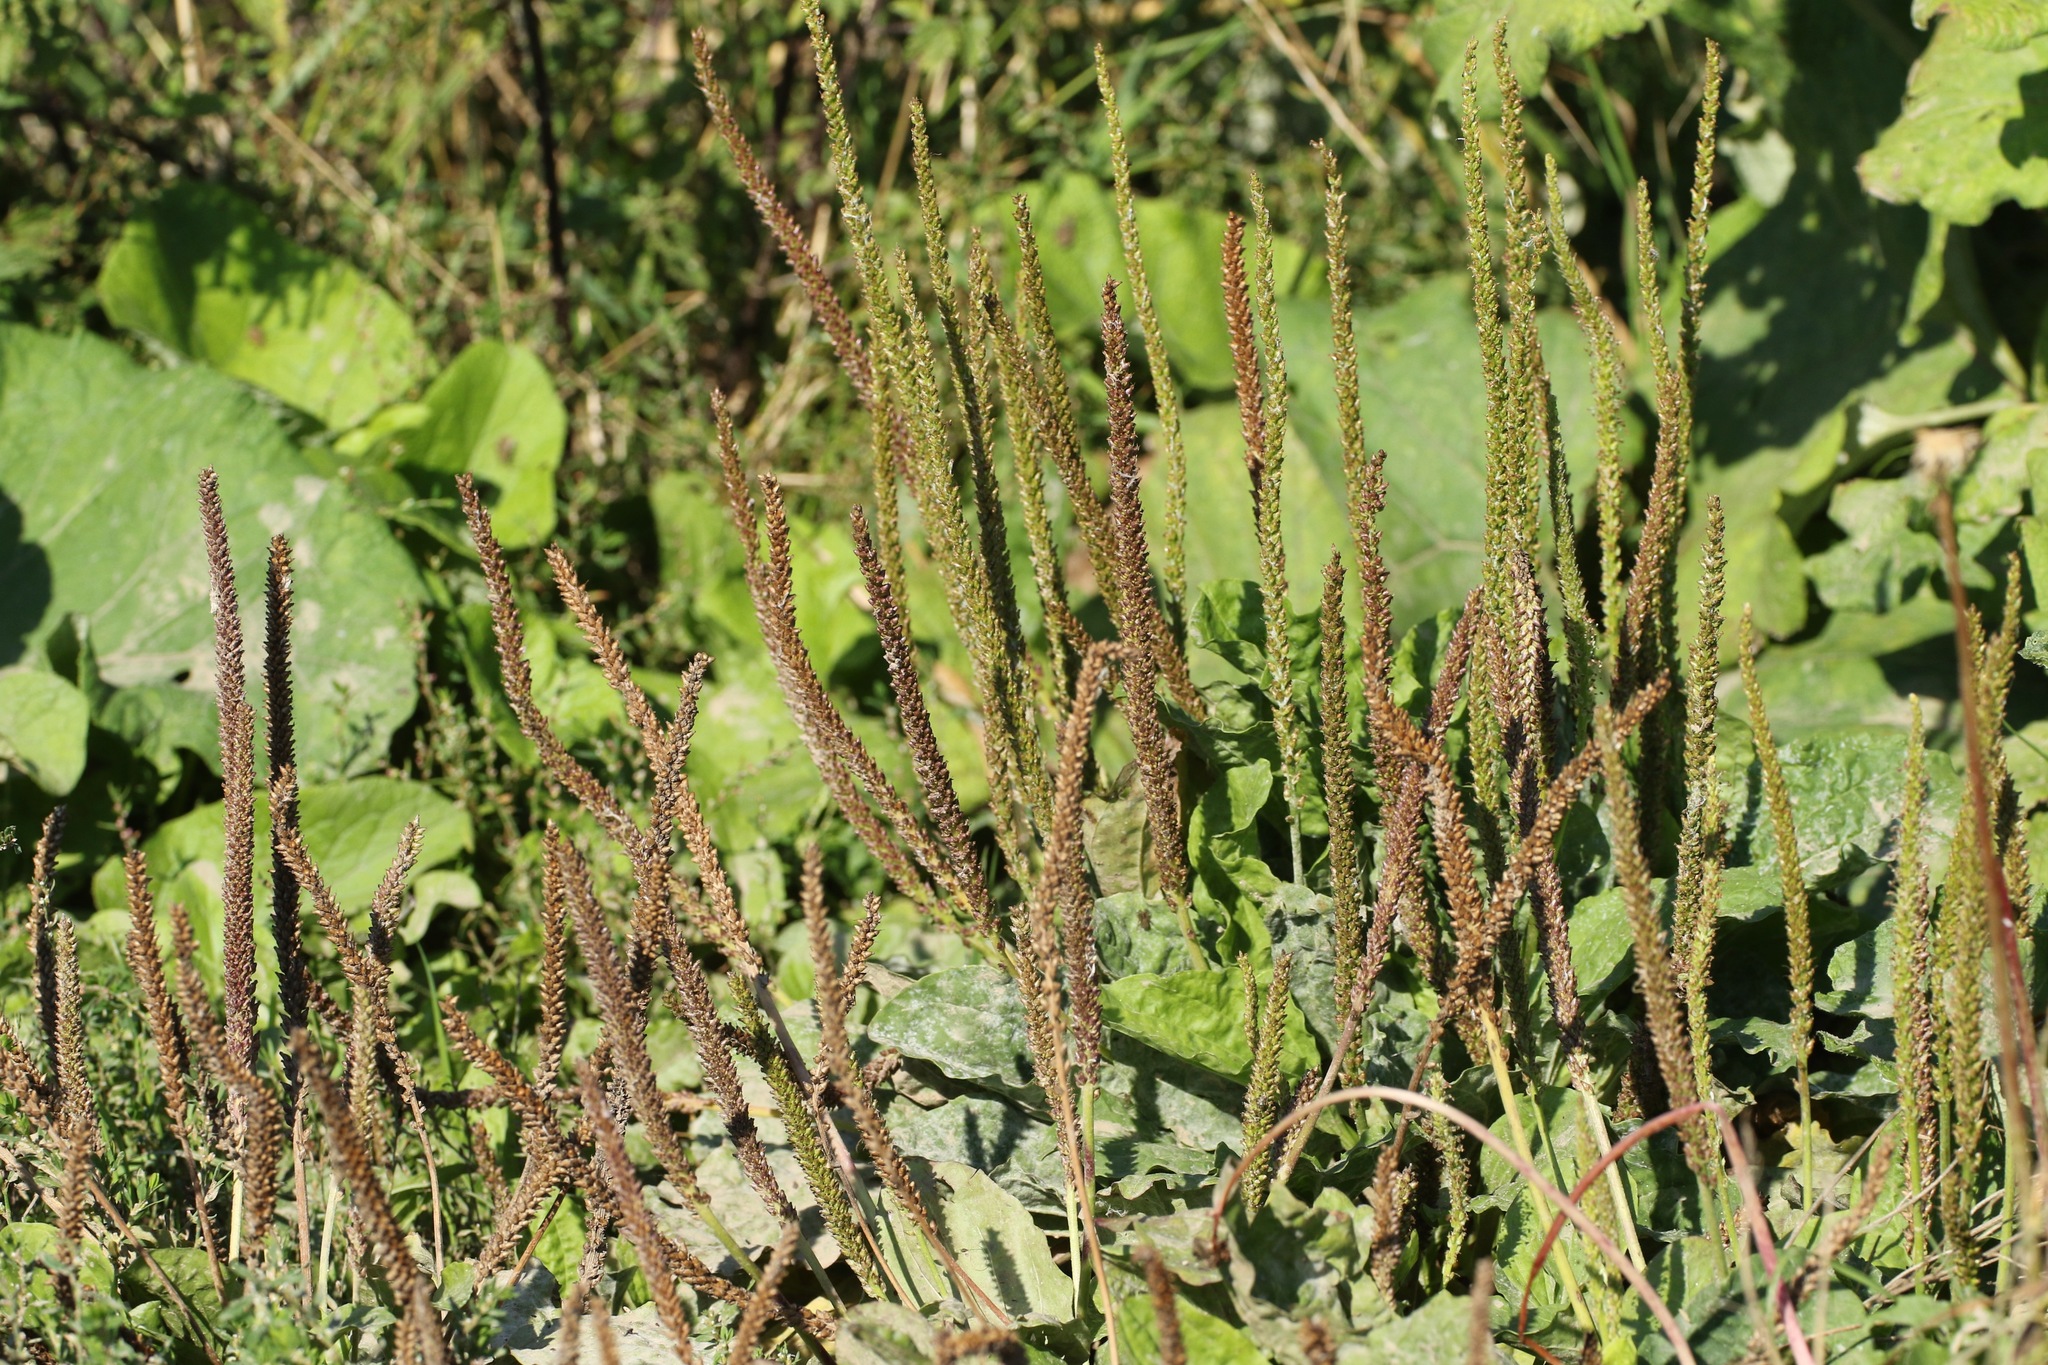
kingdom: Plantae
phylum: Tracheophyta
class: Magnoliopsida
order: Lamiales
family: Plantaginaceae
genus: Plantago
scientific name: Plantago major
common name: Common plantain
